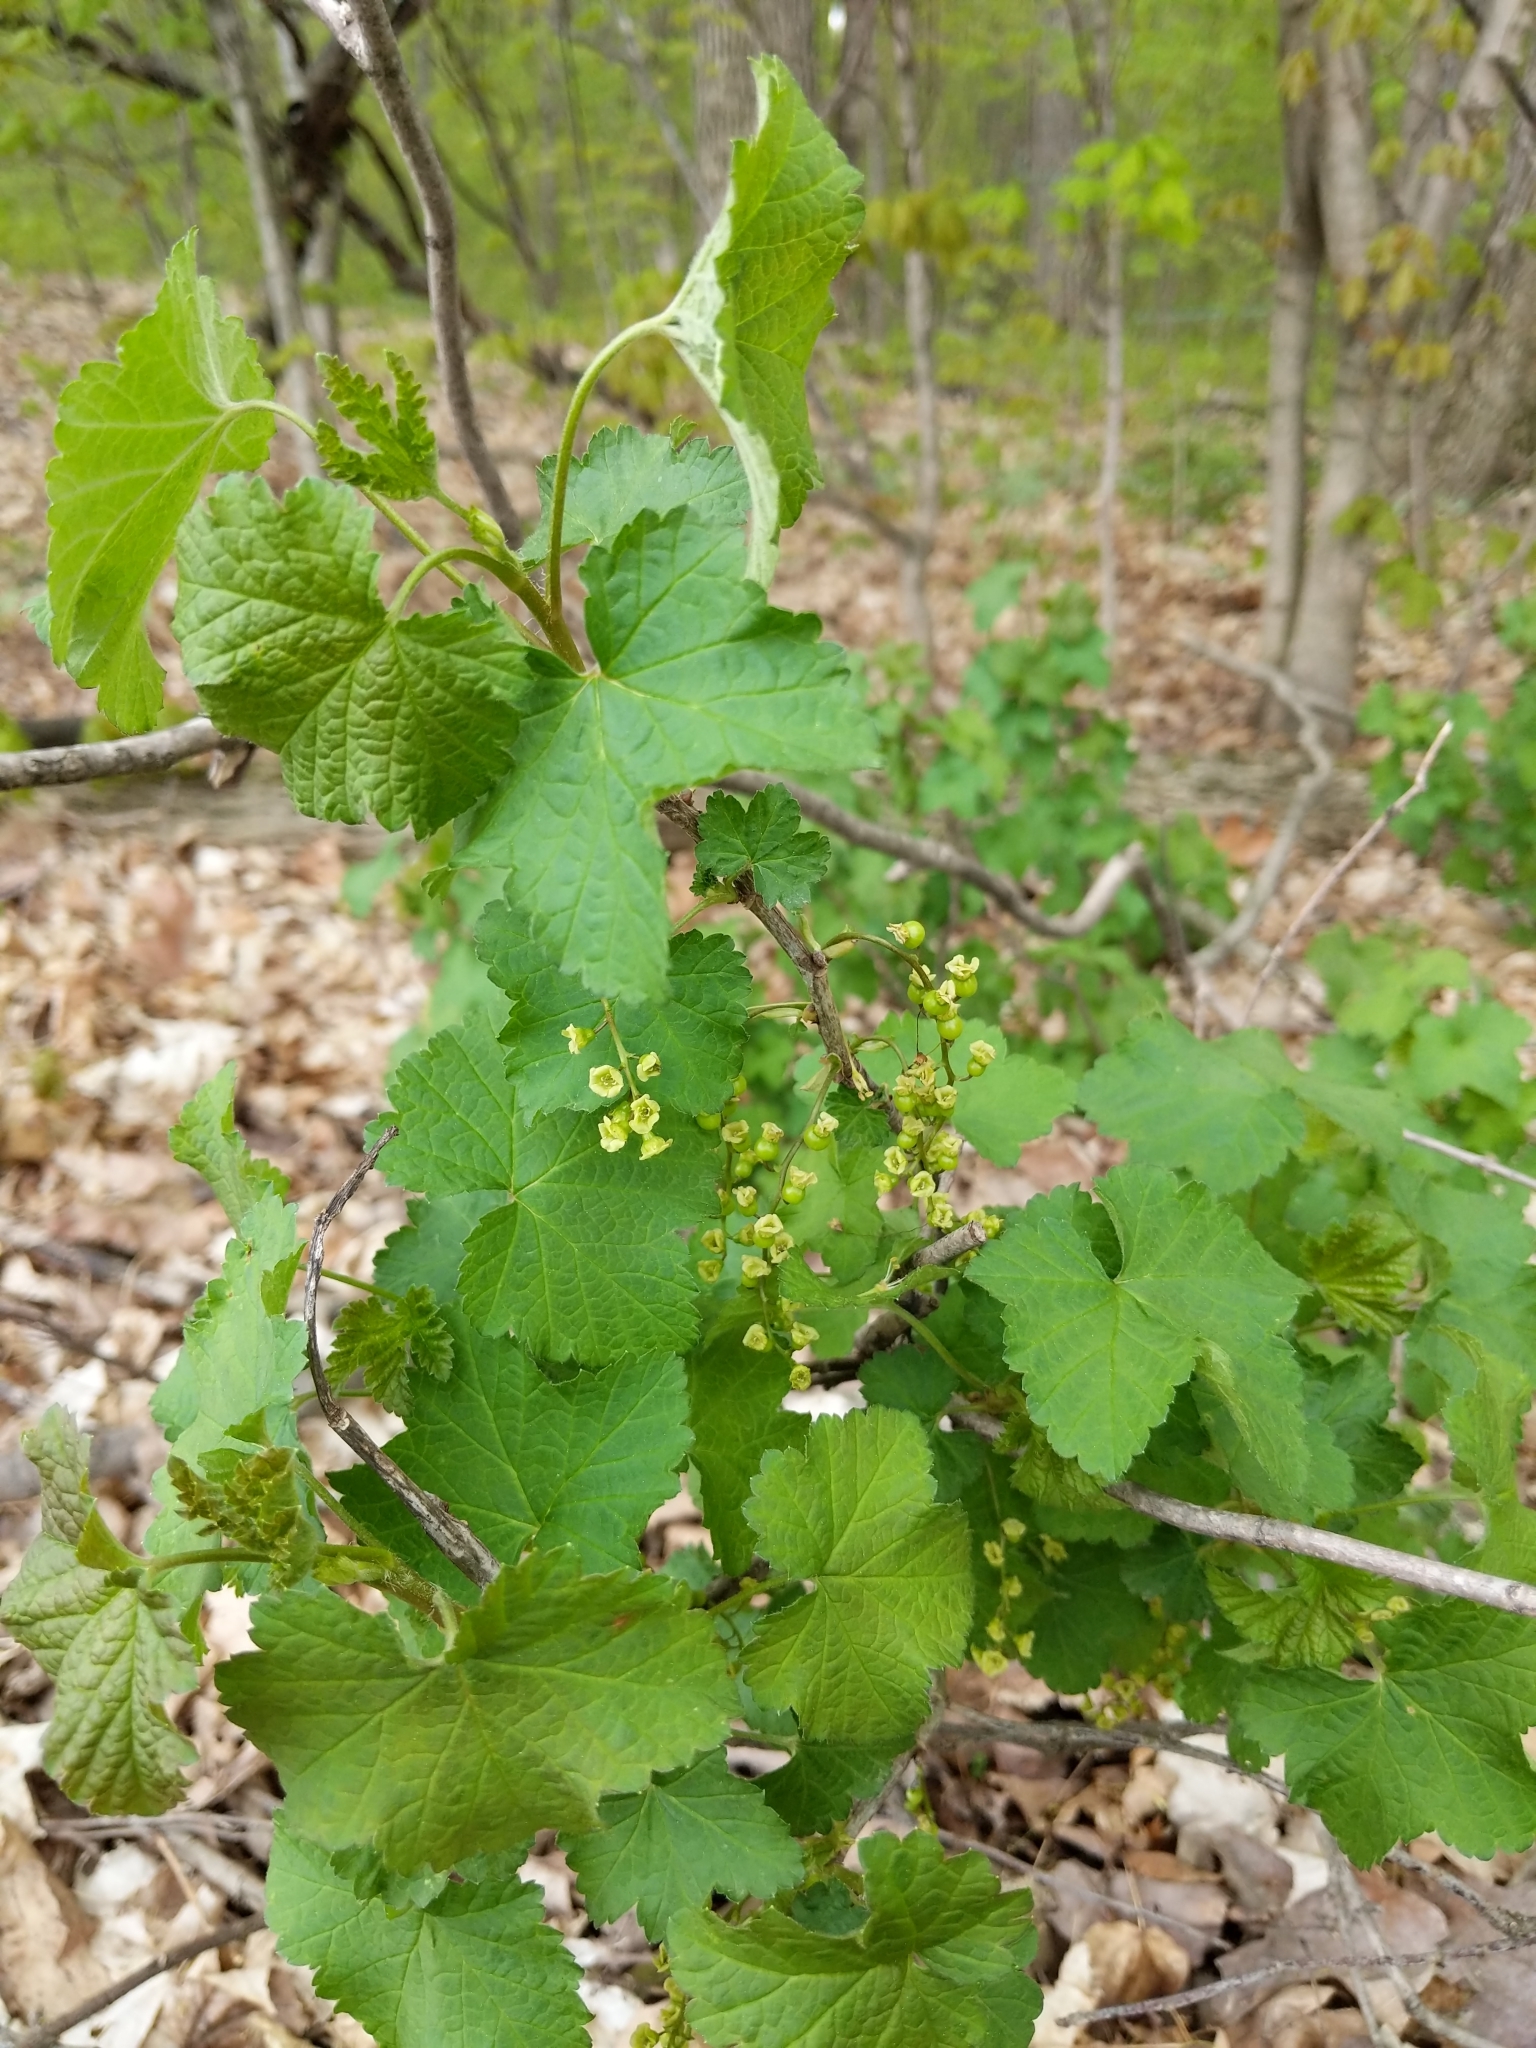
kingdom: Plantae
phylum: Tracheophyta
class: Magnoliopsida
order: Saxifragales
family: Grossulariaceae
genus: Ribes
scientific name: Ribes rubrum
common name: Red currant
